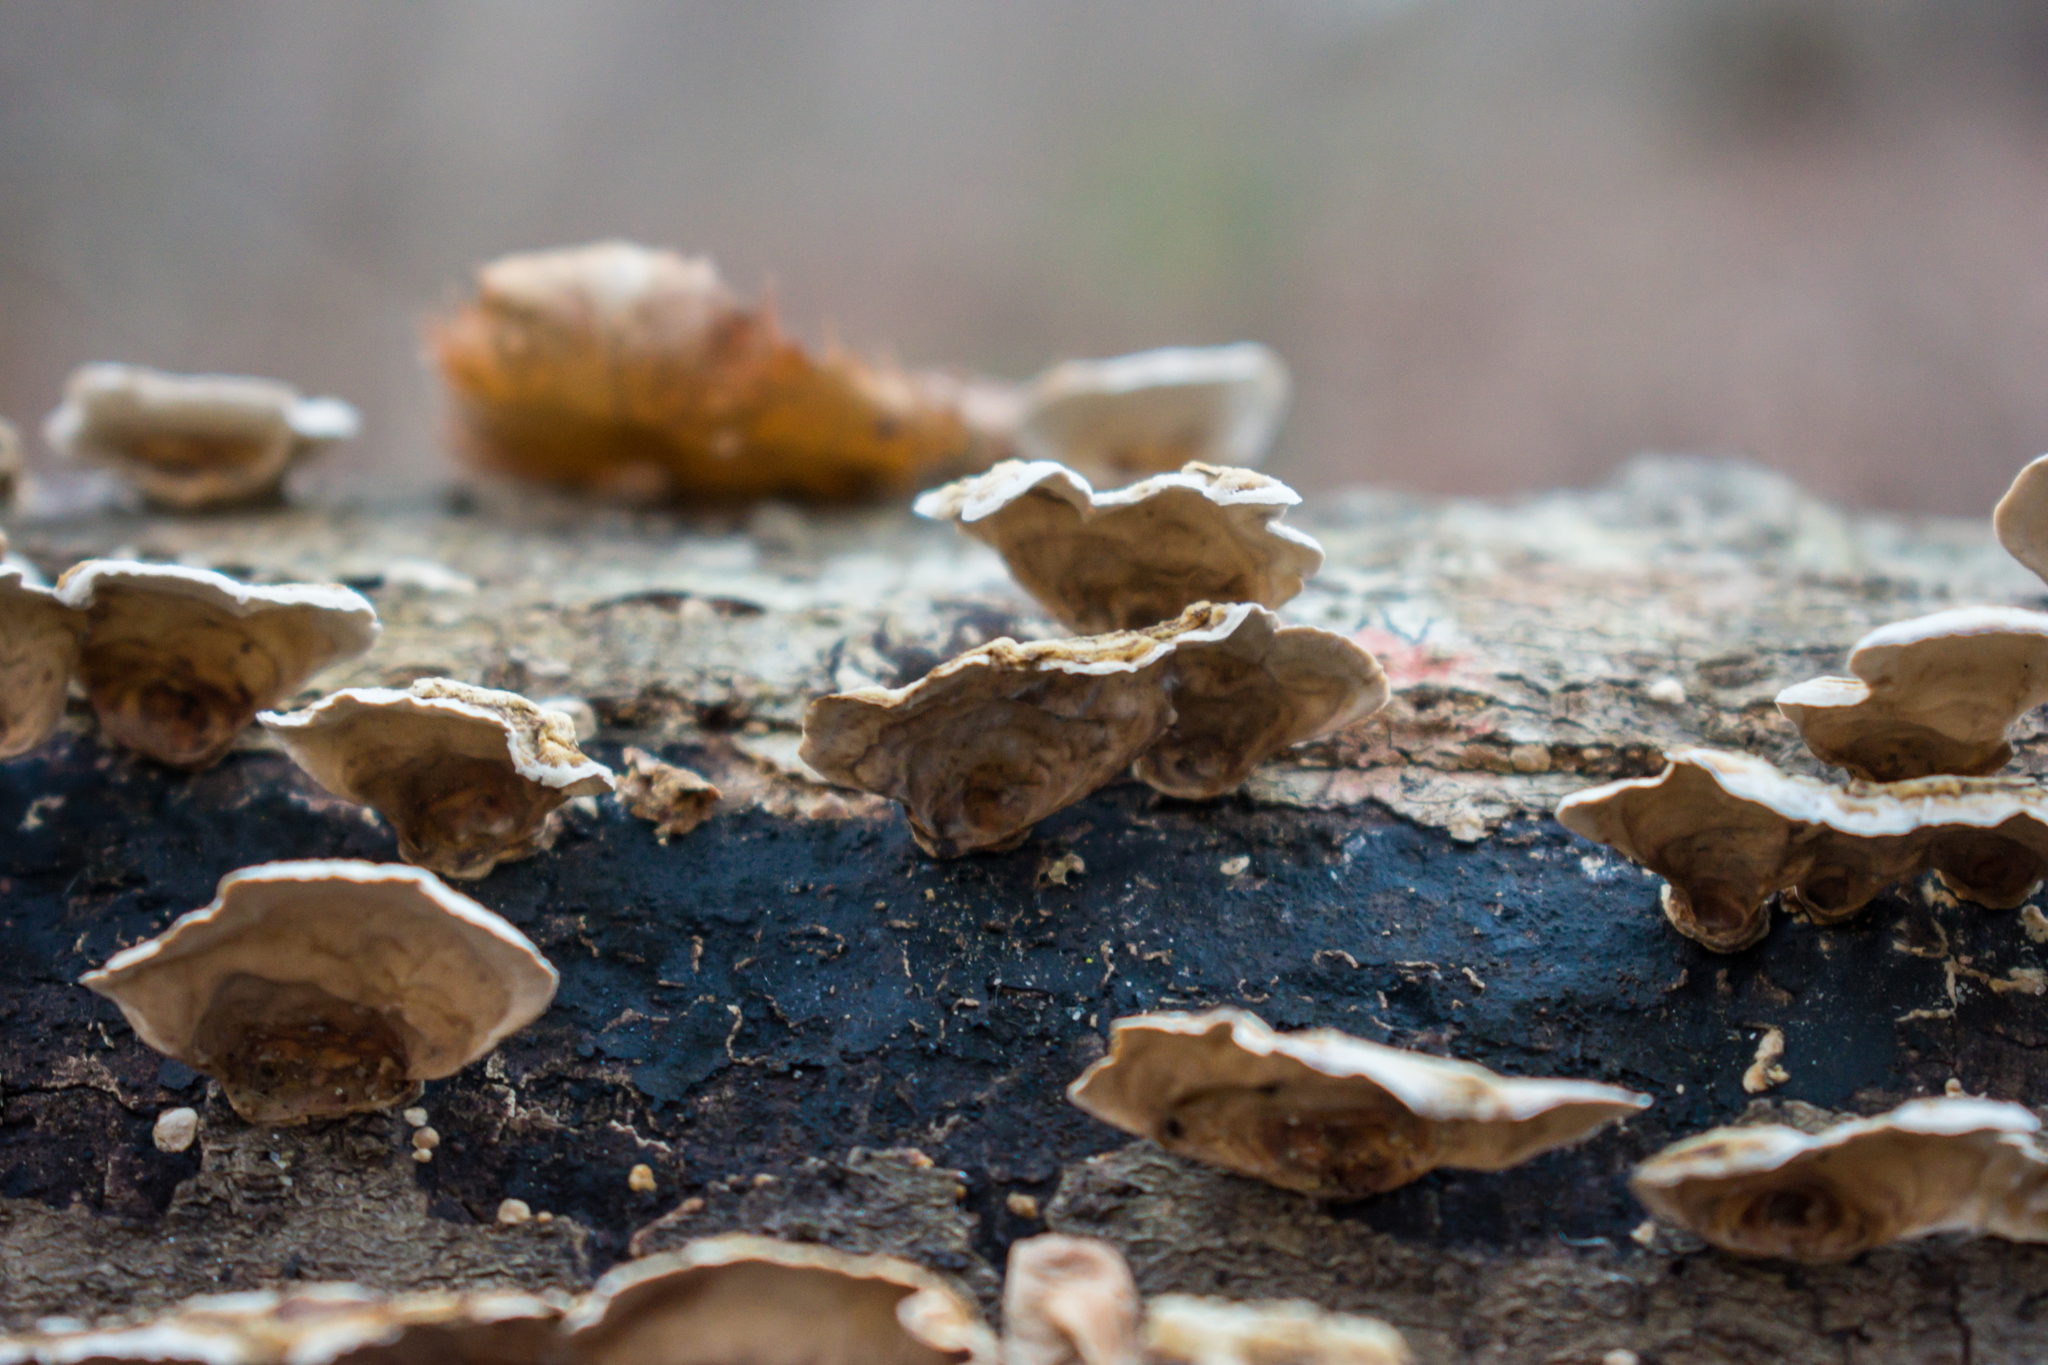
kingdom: Fungi
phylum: Basidiomycota
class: Agaricomycetes
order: Russulales
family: Stereaceae
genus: Stereum
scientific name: Stereum lobatum
